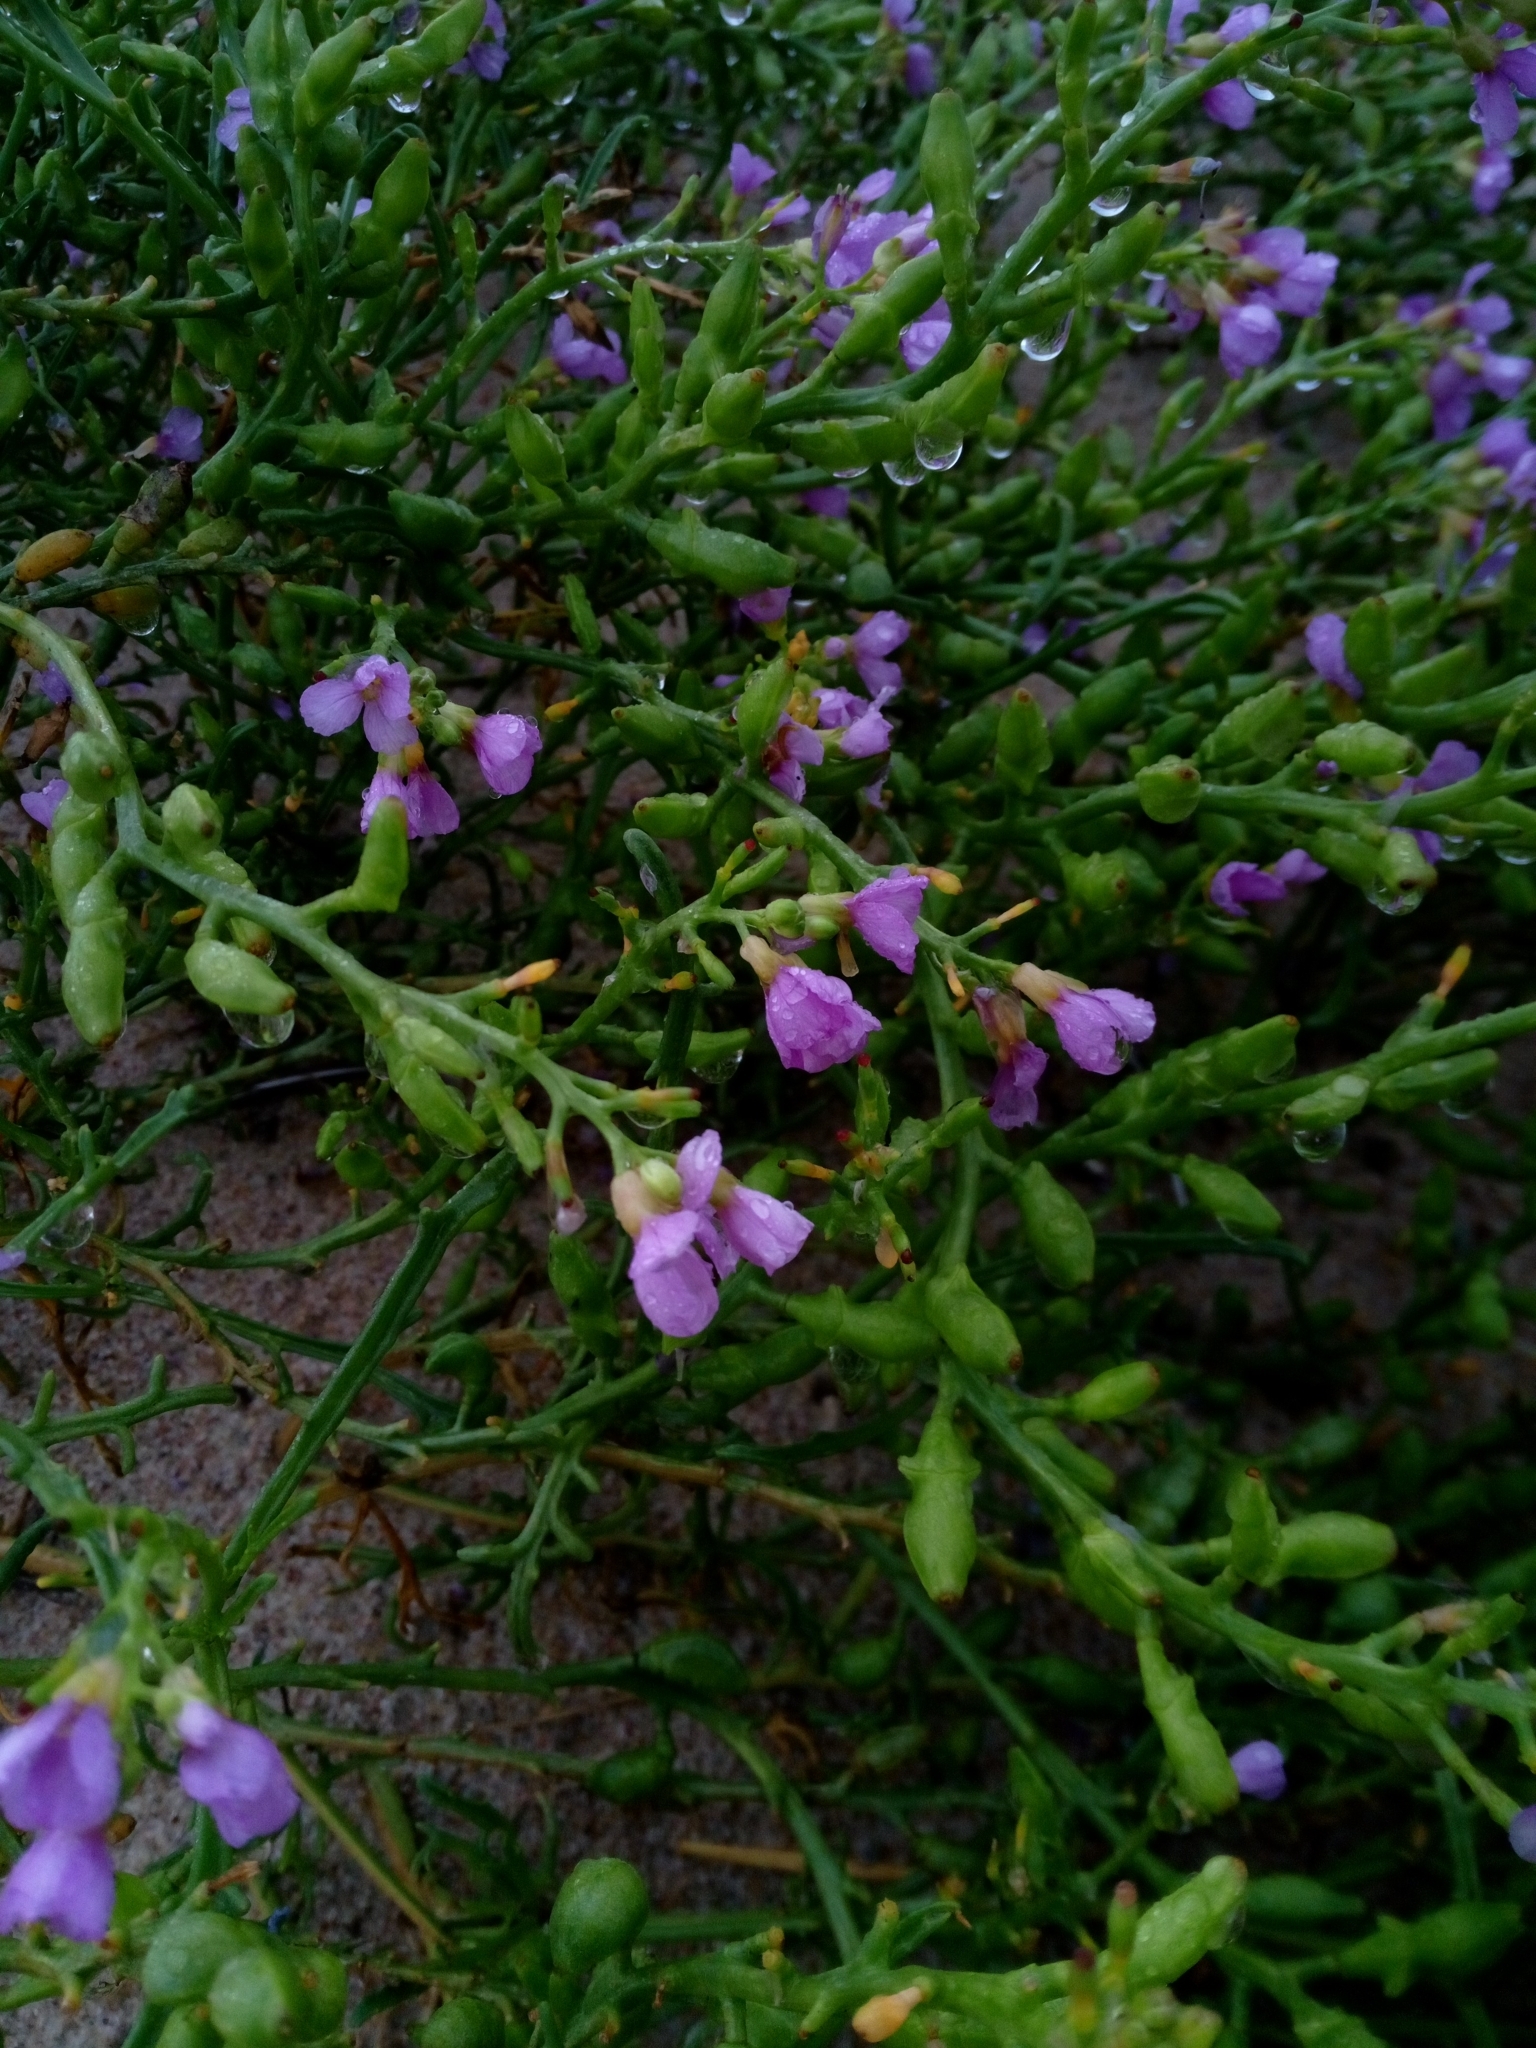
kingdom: Plantae
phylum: Tracheophyta
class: Magnoliopsida
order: Brassicales
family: Brassicaceae
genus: Cakile
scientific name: Cakile maritima
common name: Sea rocket
